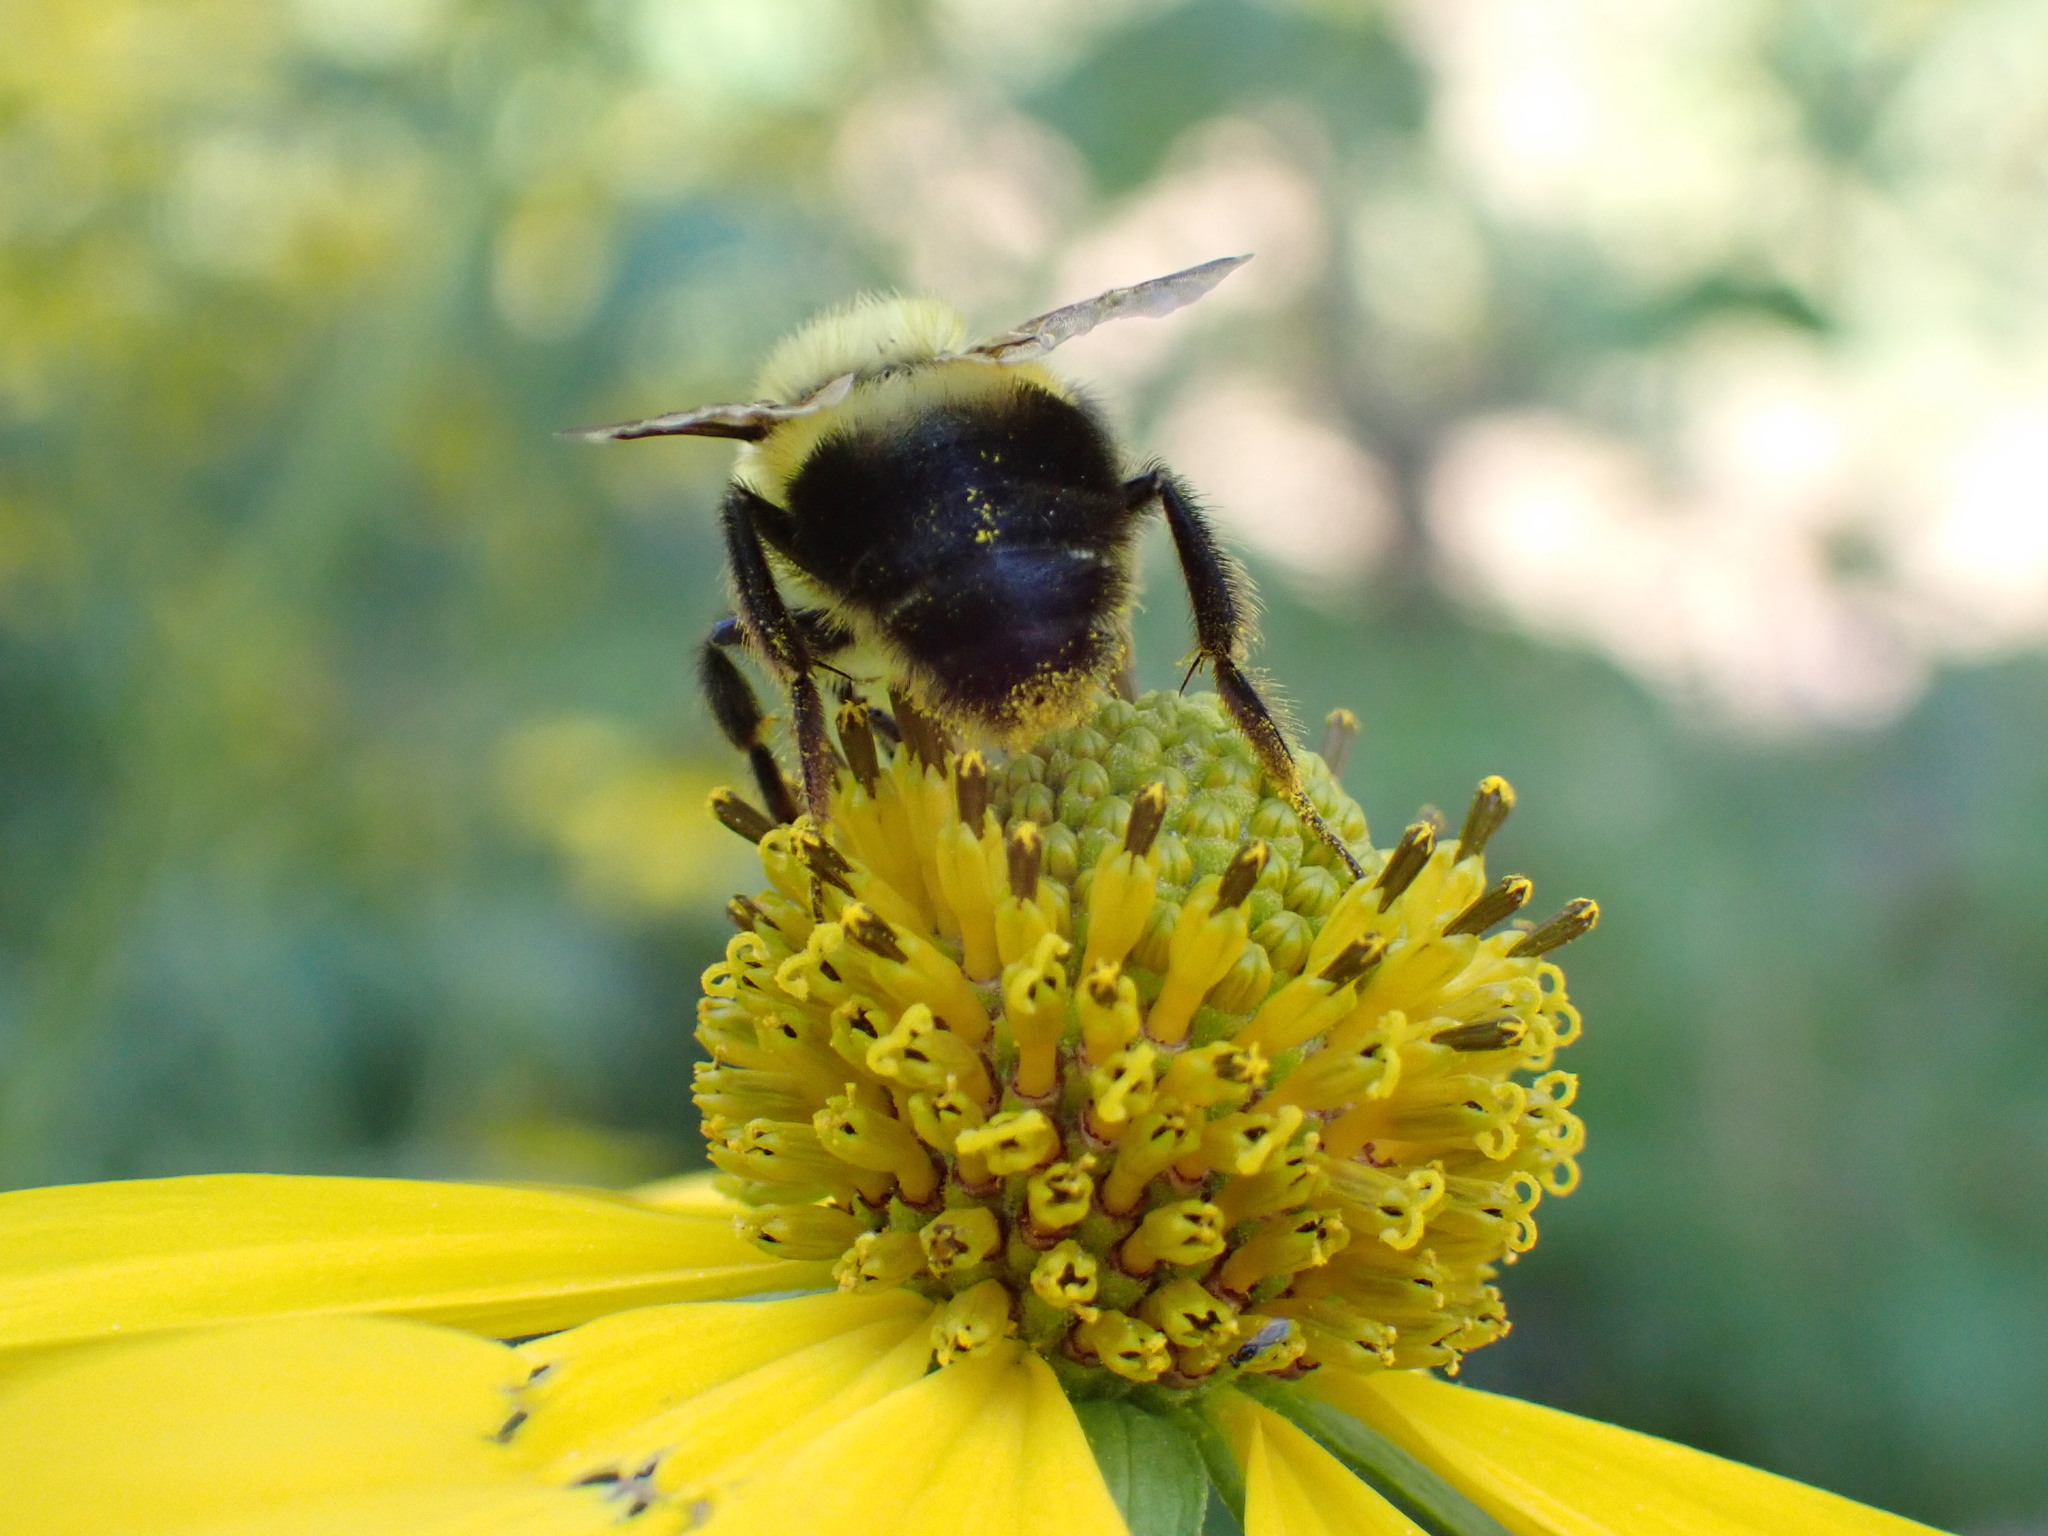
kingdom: Animalia
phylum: Arthropoda
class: Insecta
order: Hymenoptera
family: Apidae
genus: Bombus
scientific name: Bombus bimaculatus
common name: Two-spotted bumble bee
